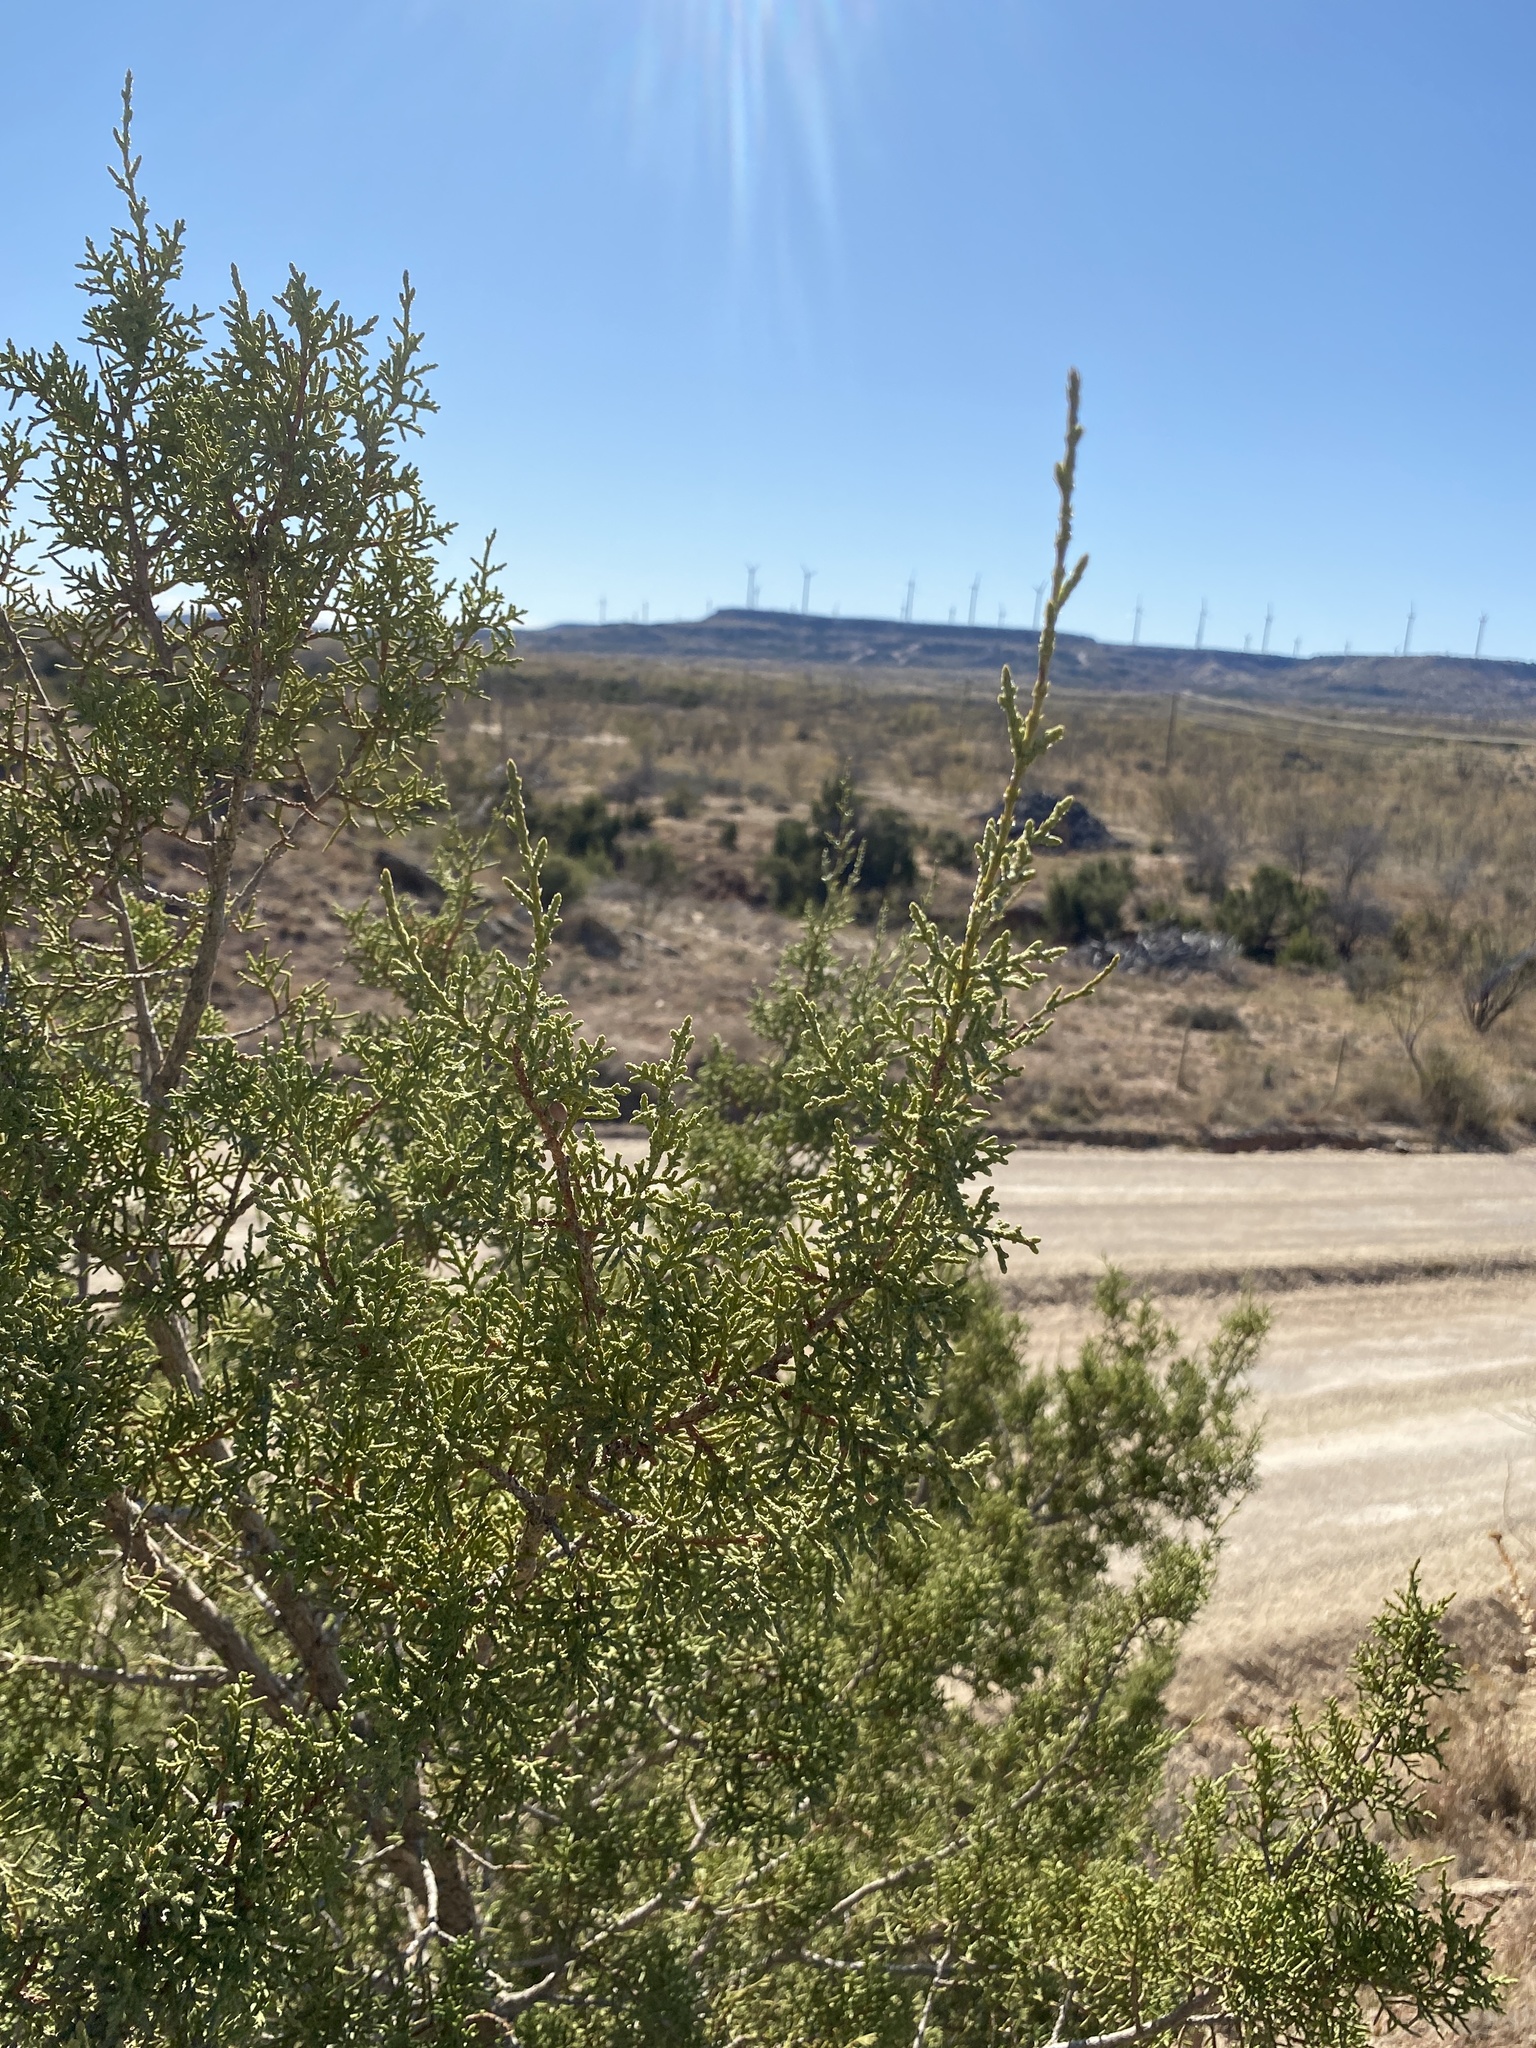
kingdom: Plantae
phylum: Tracheophyta
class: Pinopsida
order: Pinales
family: Cupressaceae
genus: Juniperus
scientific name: Juniperus pinchotii
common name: Pinchot juniper
